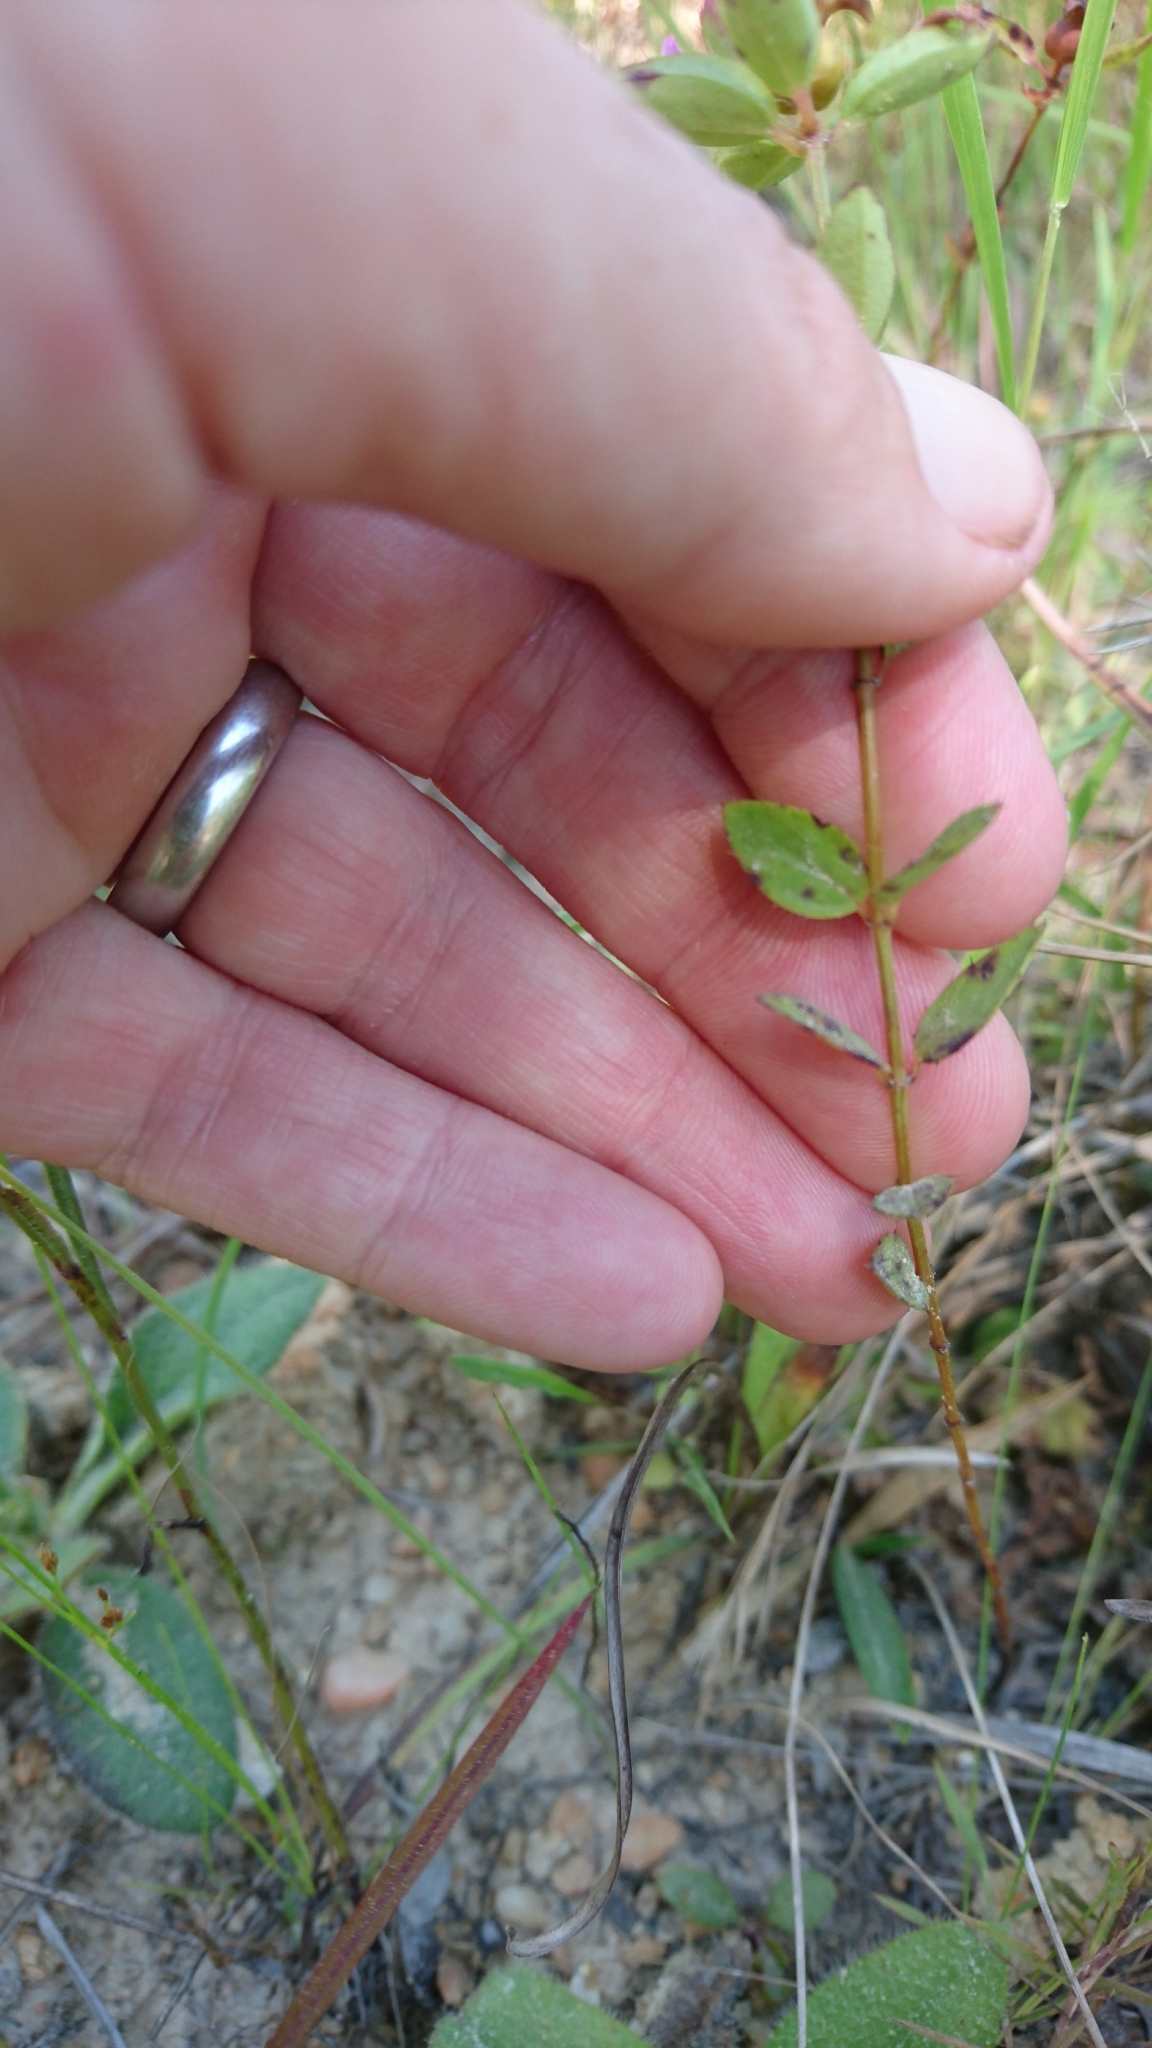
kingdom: Plantae
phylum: Tracheophyta
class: Magnoliopsida
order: Myrtales
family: Melastomataceae
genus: Rhexia
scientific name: Rhexia petiolata
